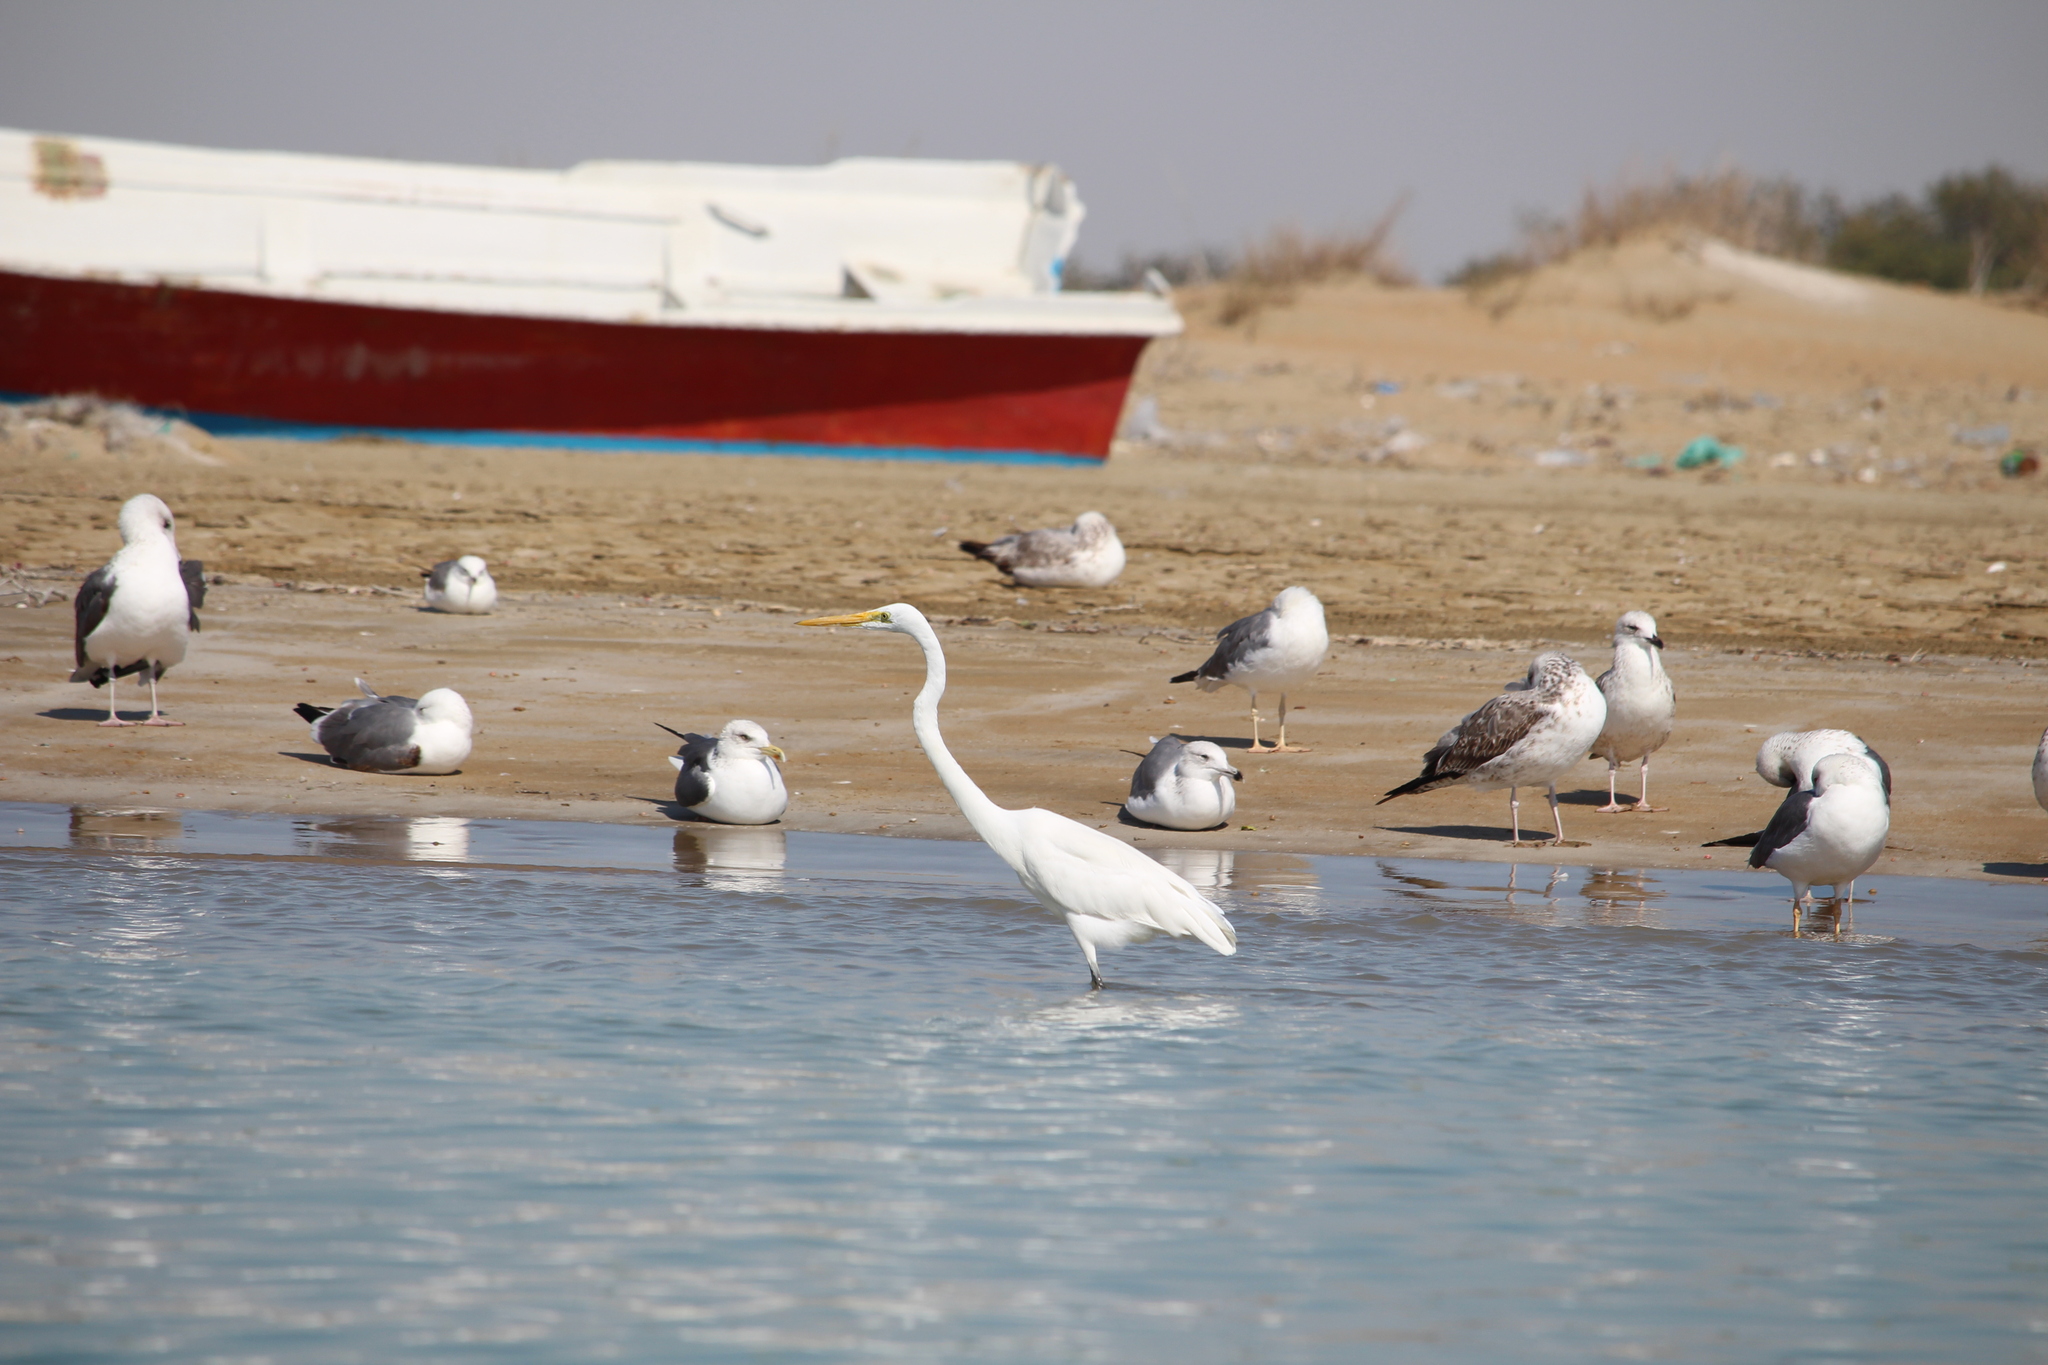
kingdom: Animalia
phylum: Chordata
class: Aves
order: Pelecaniformes
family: Ardeidae
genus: Ardea
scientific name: Ardea alba
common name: Great egret
